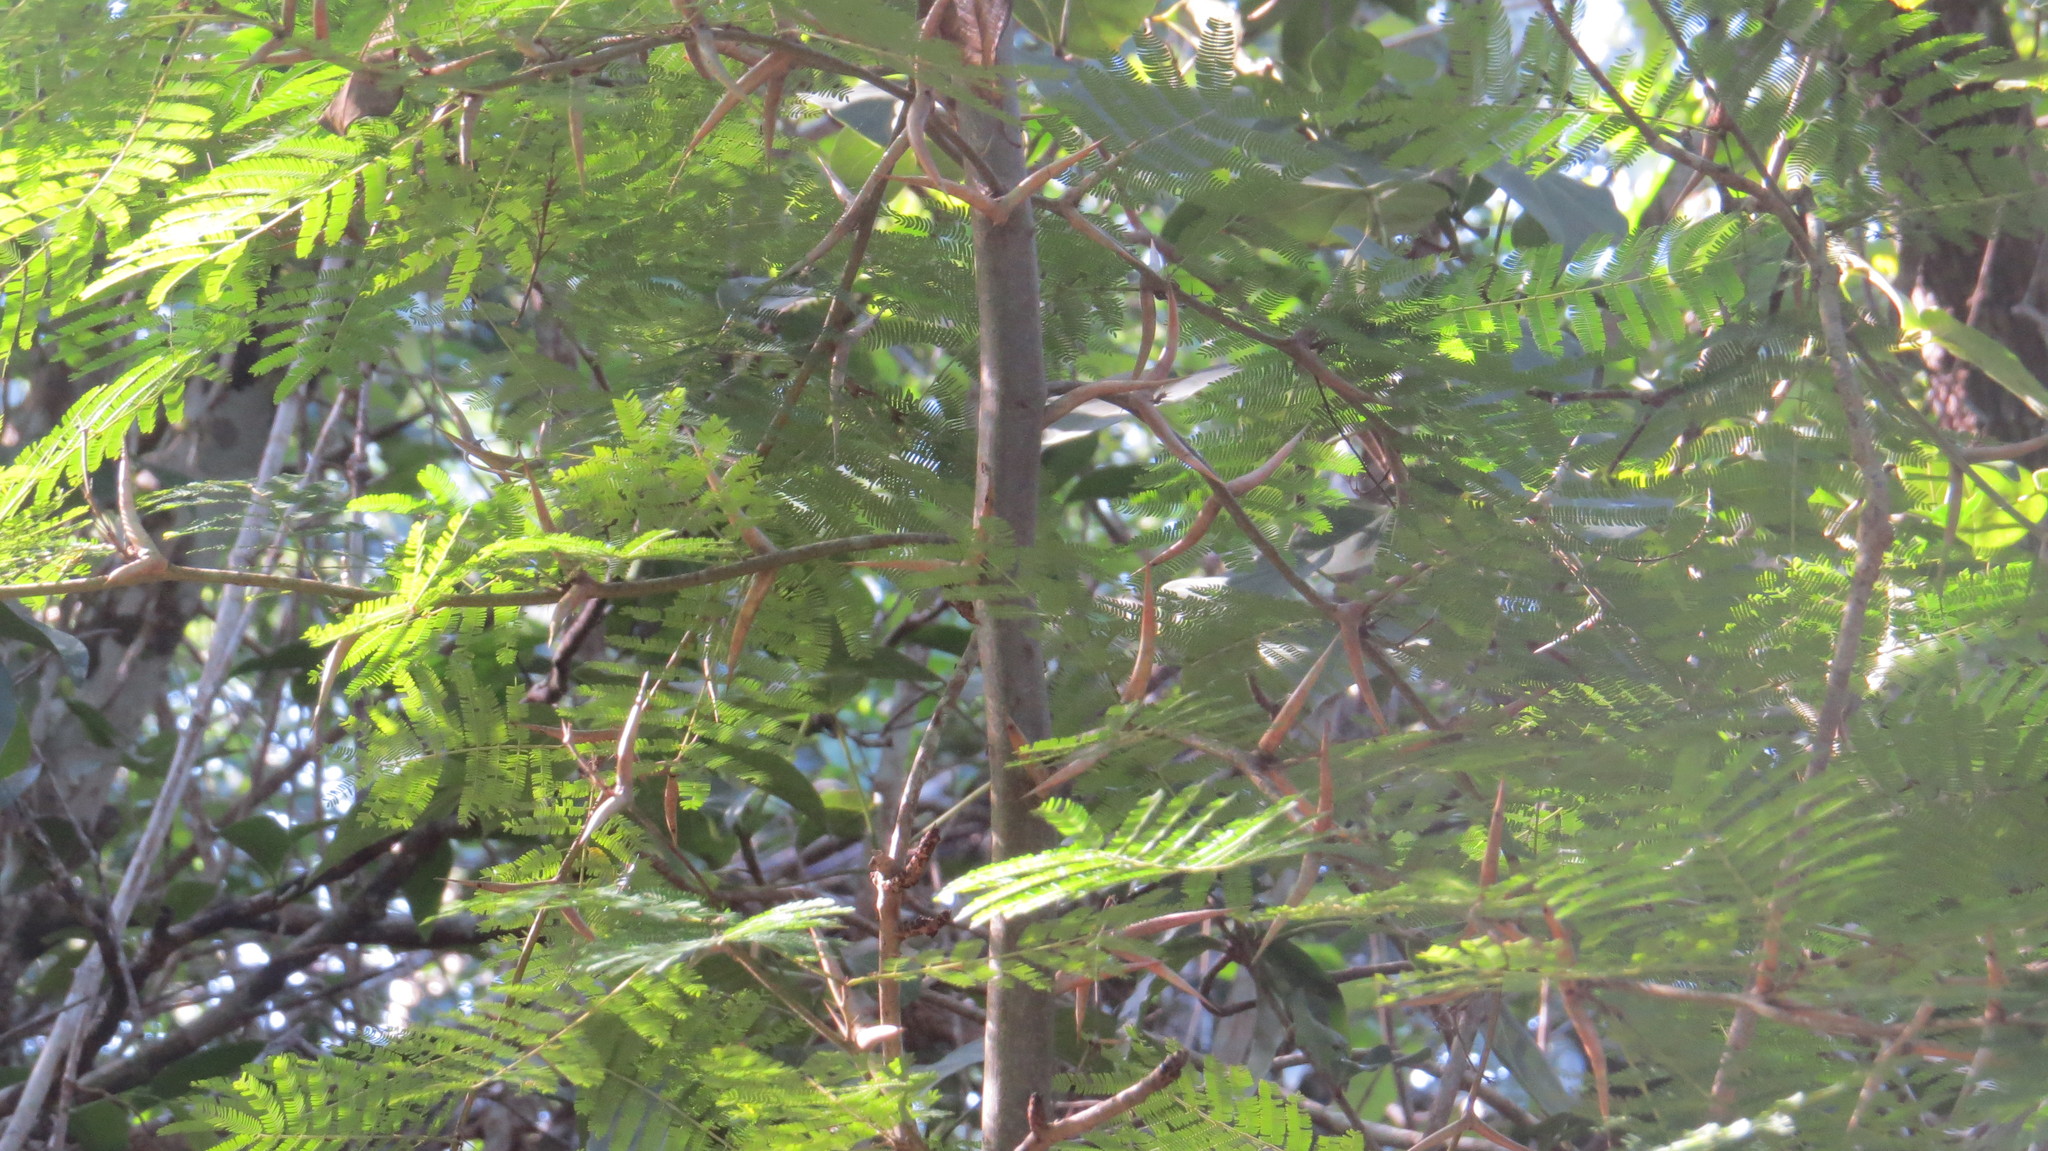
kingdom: Plantae
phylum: Tracheophyta
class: Magnoliopsida
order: Fabales
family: Fabaceae
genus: Vachellia
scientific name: Vachellia cornigera
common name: Bullhorn wattle
